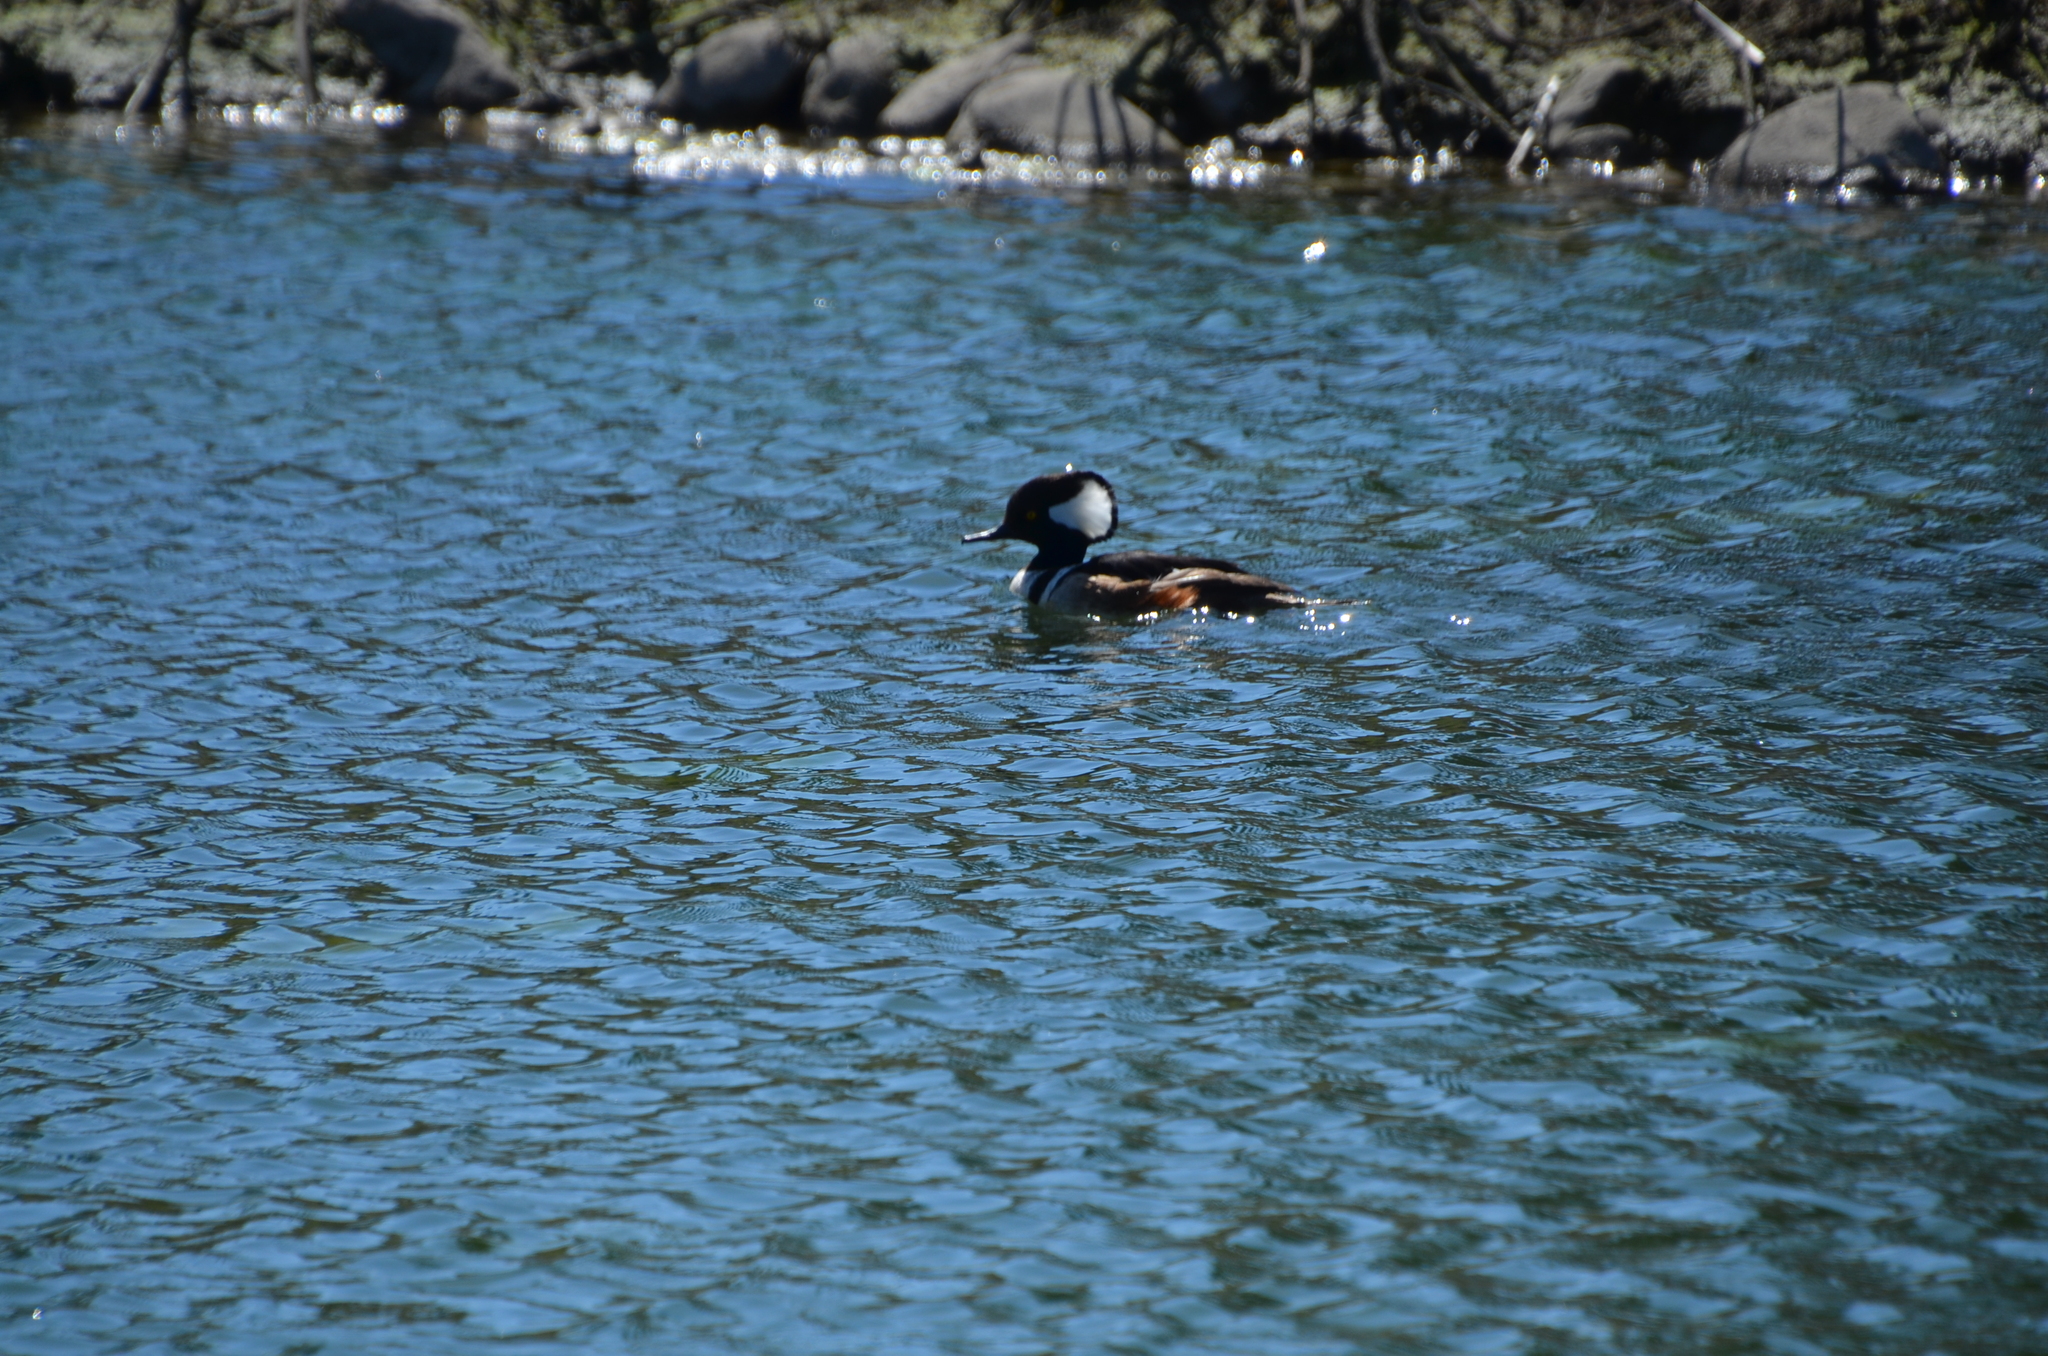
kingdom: Animalia
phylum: Chordata
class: Aves
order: Anseriformes
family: Anatidae
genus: Lophodytes
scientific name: Lophodytes cucullatus
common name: Hooded merganser
